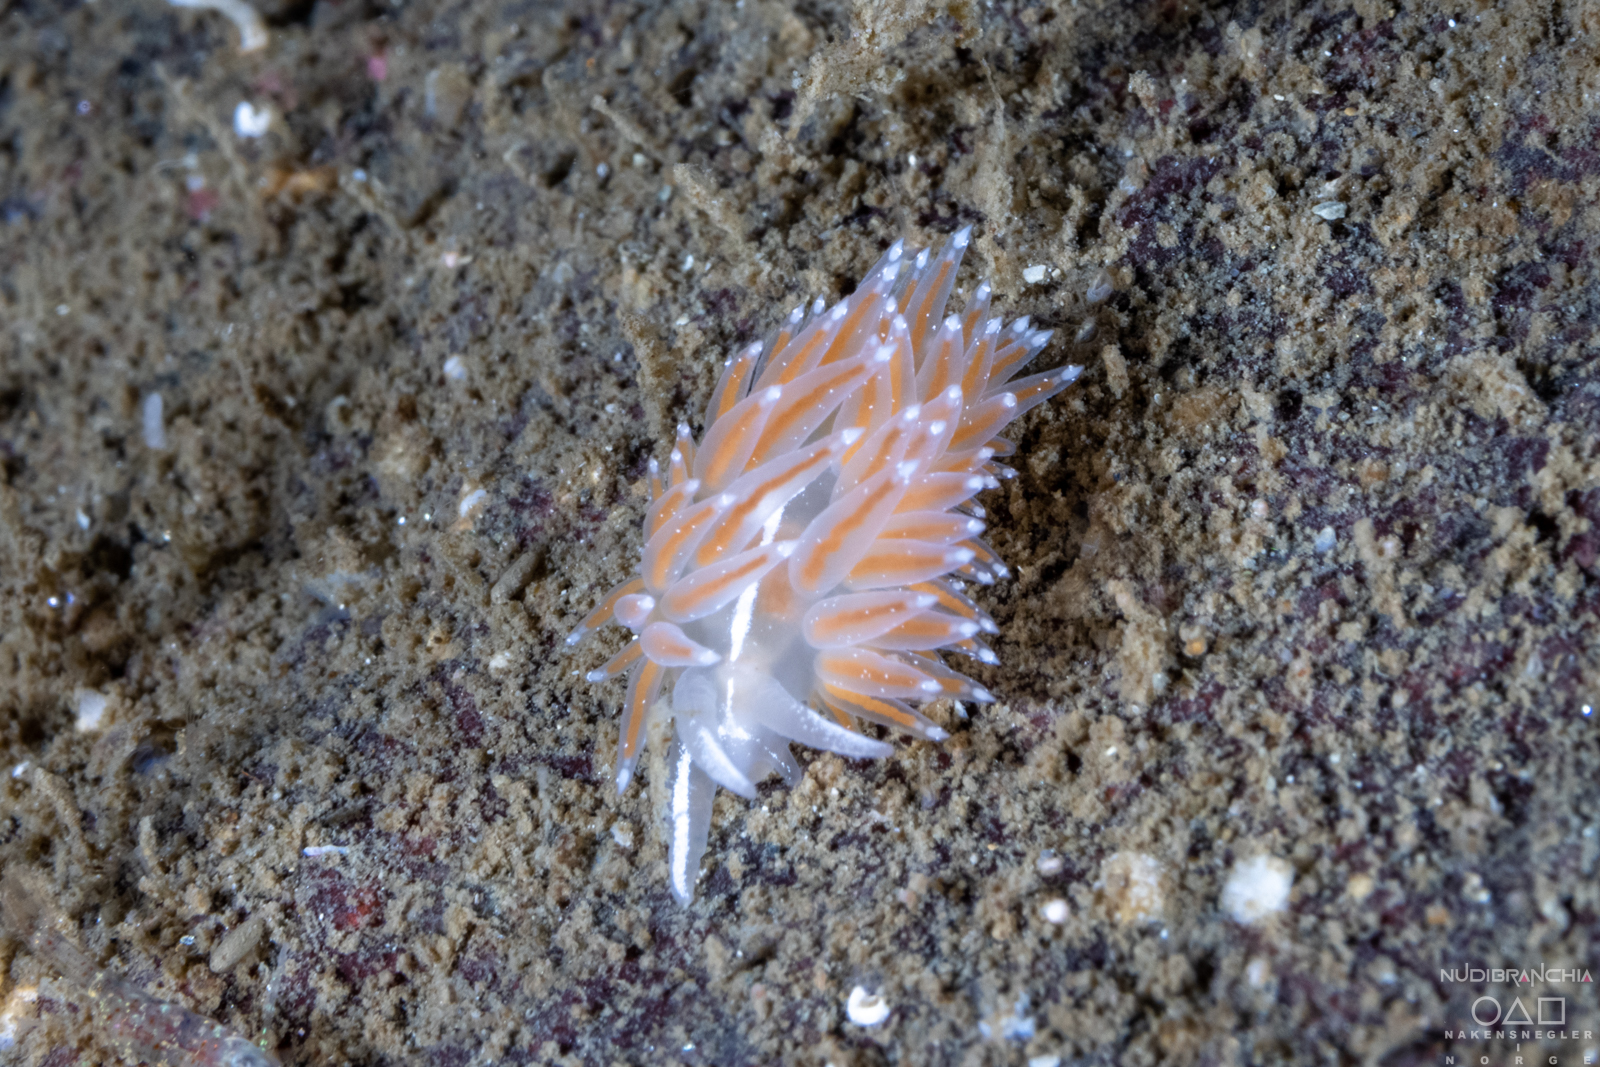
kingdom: Animalia
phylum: Mollusca
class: Gastropoda
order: Nudibranchia
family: Coryphellidae
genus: Coryphella
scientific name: Coryphella monicae
